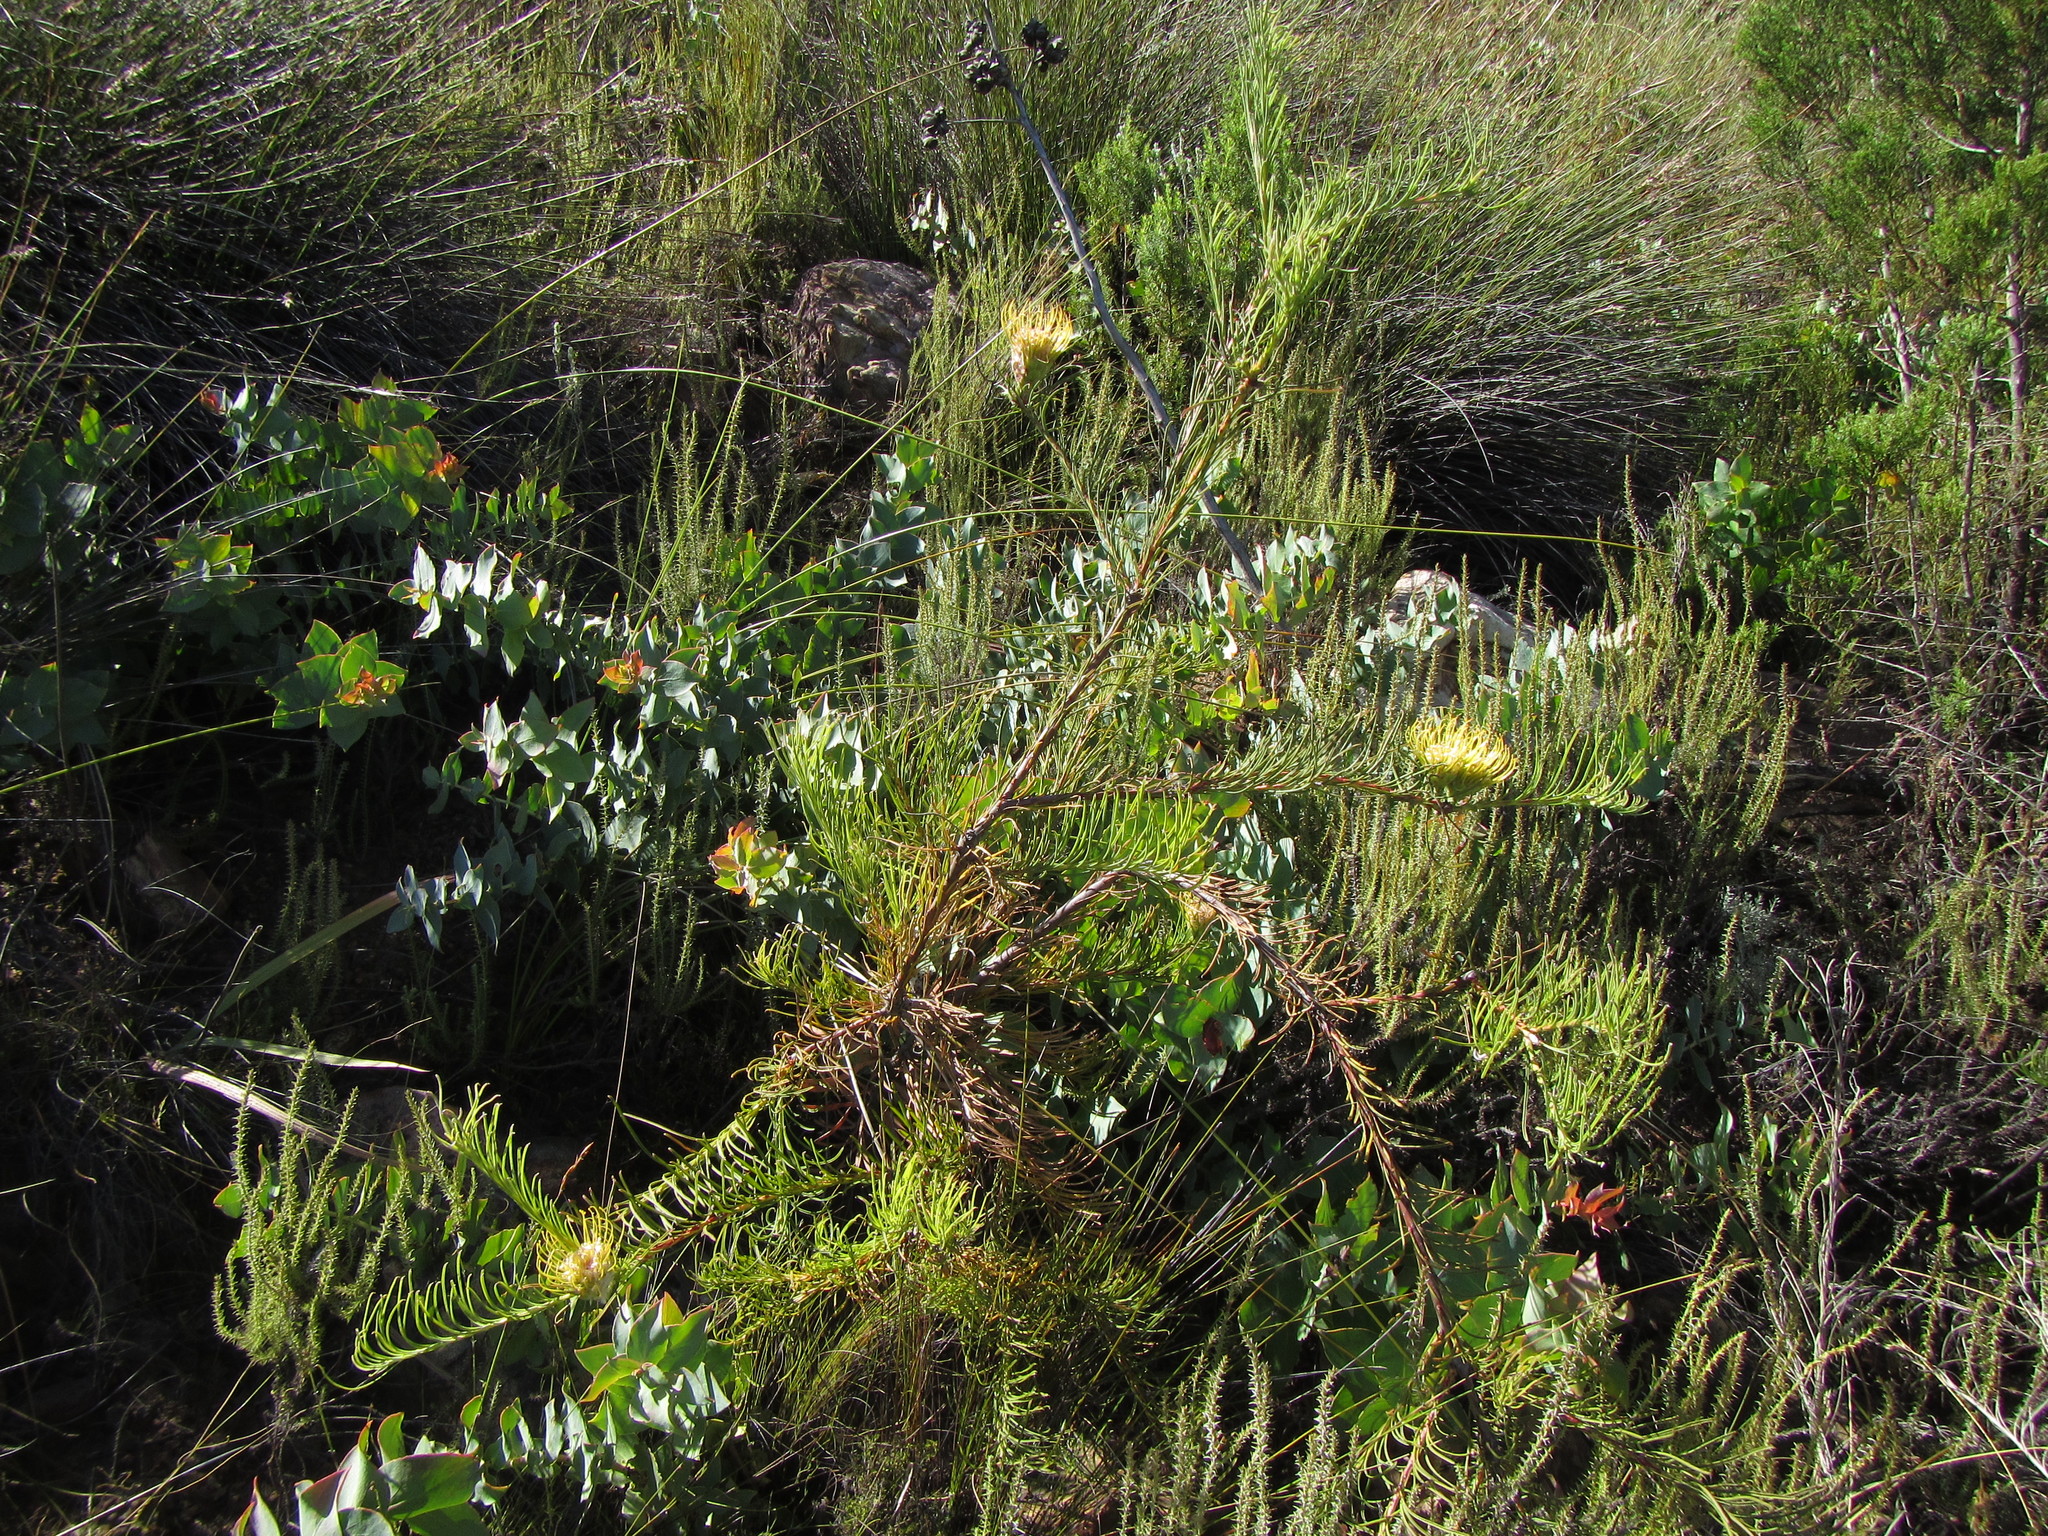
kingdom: Plantae
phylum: Tracheophyta
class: Magnoliopsida
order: Proteales
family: Proteaceae
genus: Leucospermum
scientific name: Leucospermum lineare
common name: Needle-leaf pincushion
